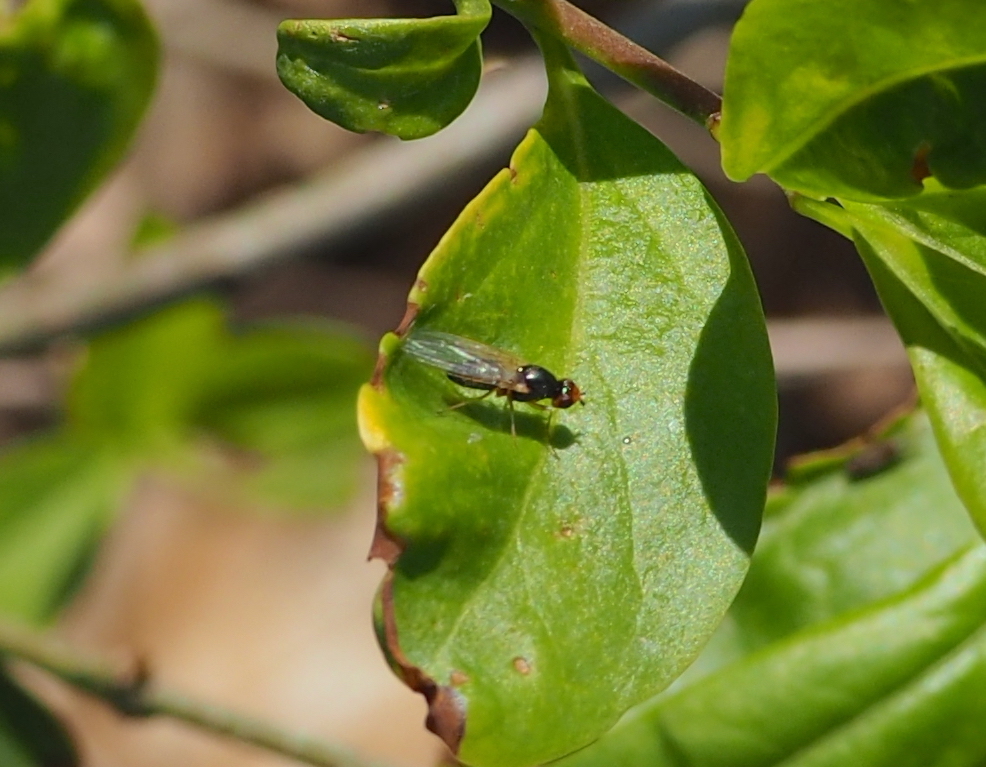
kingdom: Animalia
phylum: Arthropoda
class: Insecta
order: Diptera
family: Psilidae
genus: Chamaepsila
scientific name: Chamaepsila
